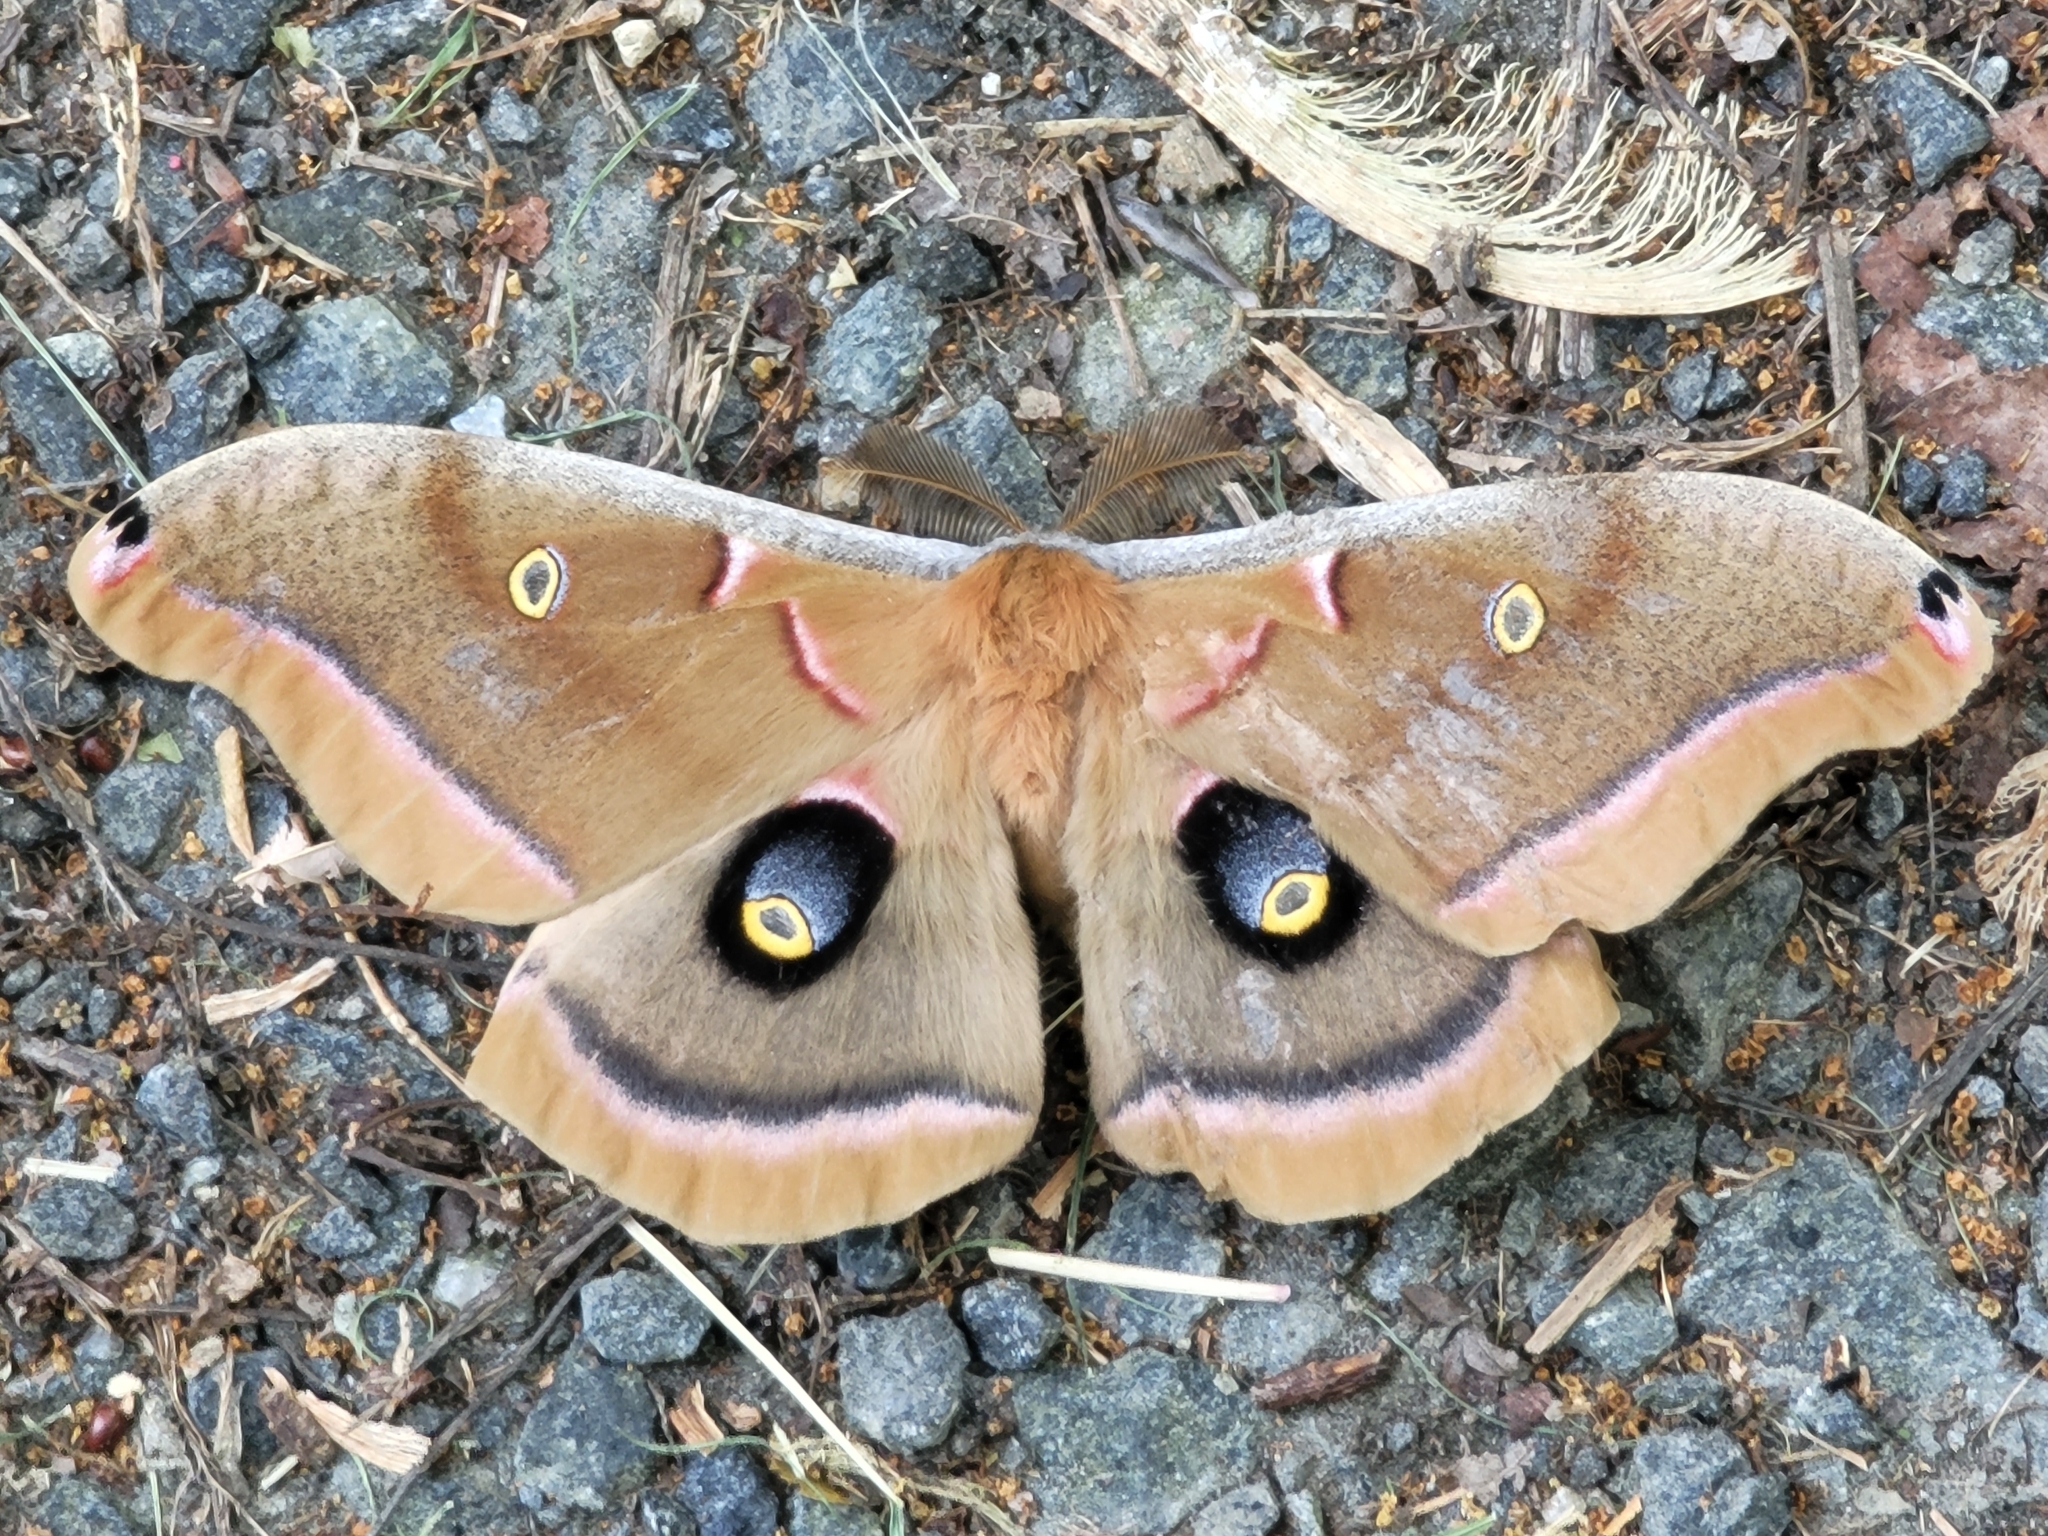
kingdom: Animalia
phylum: Arthropoda
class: Insecta
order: Lepidoptera
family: Saturniidae
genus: Antheraea
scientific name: Antheraea polyphemus
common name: Polyphemus moth
